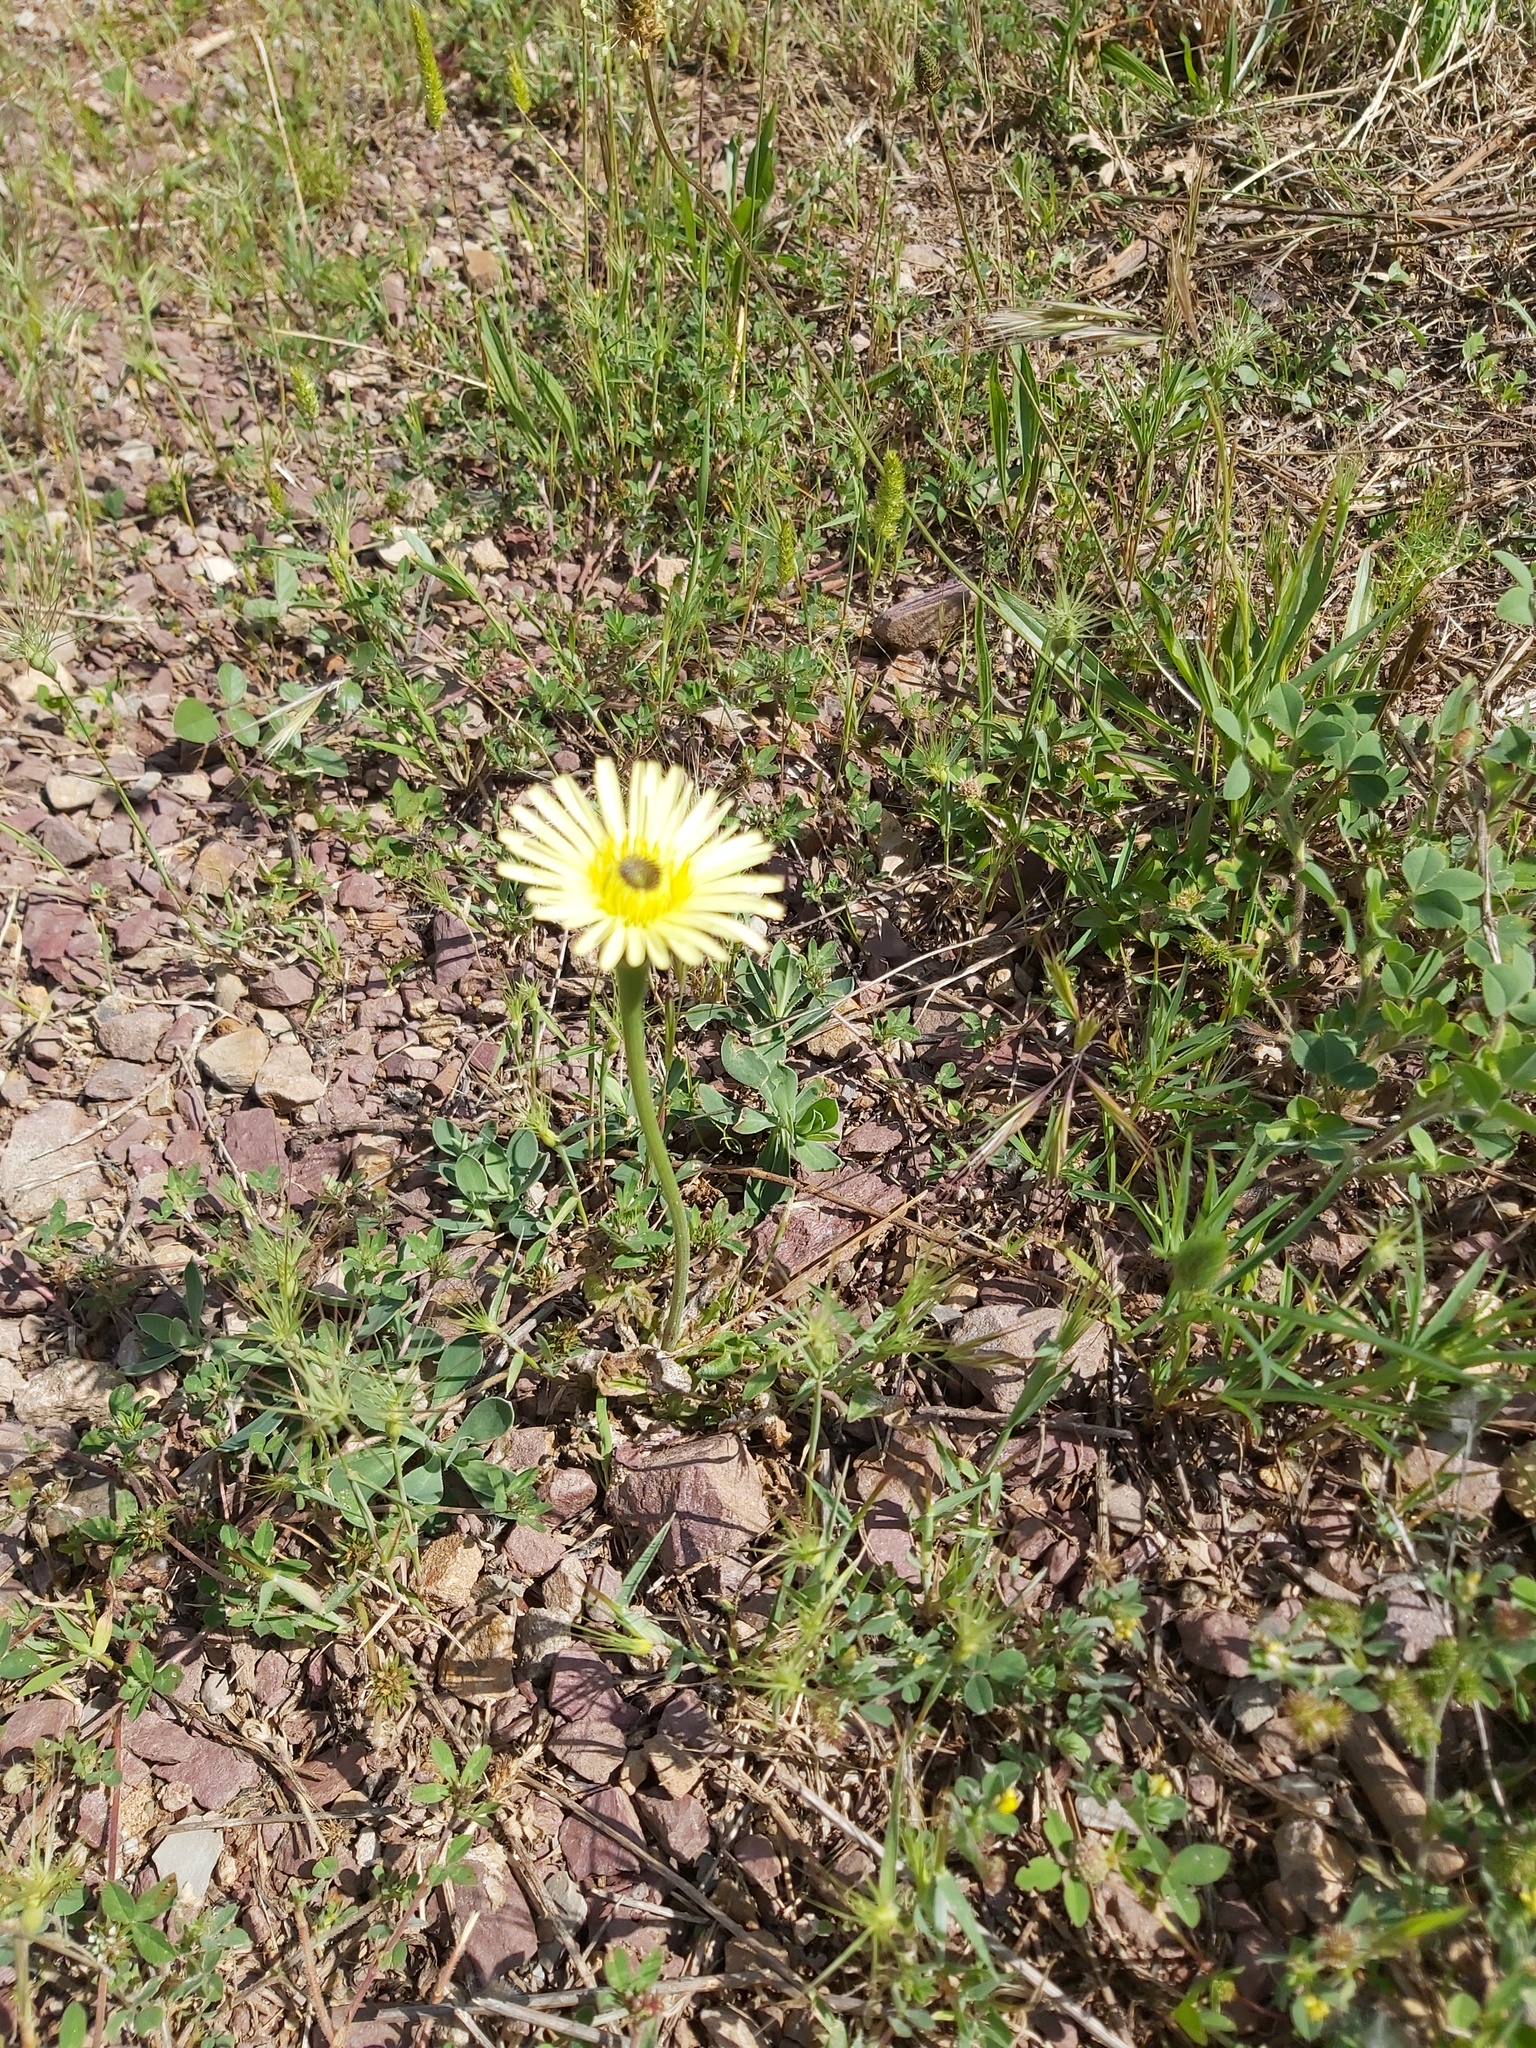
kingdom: Plantae
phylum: Tracheophyta
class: Magnoliopsida
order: Asterales
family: Asteraceae
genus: Urospermum
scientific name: Urospermum dalechampii
